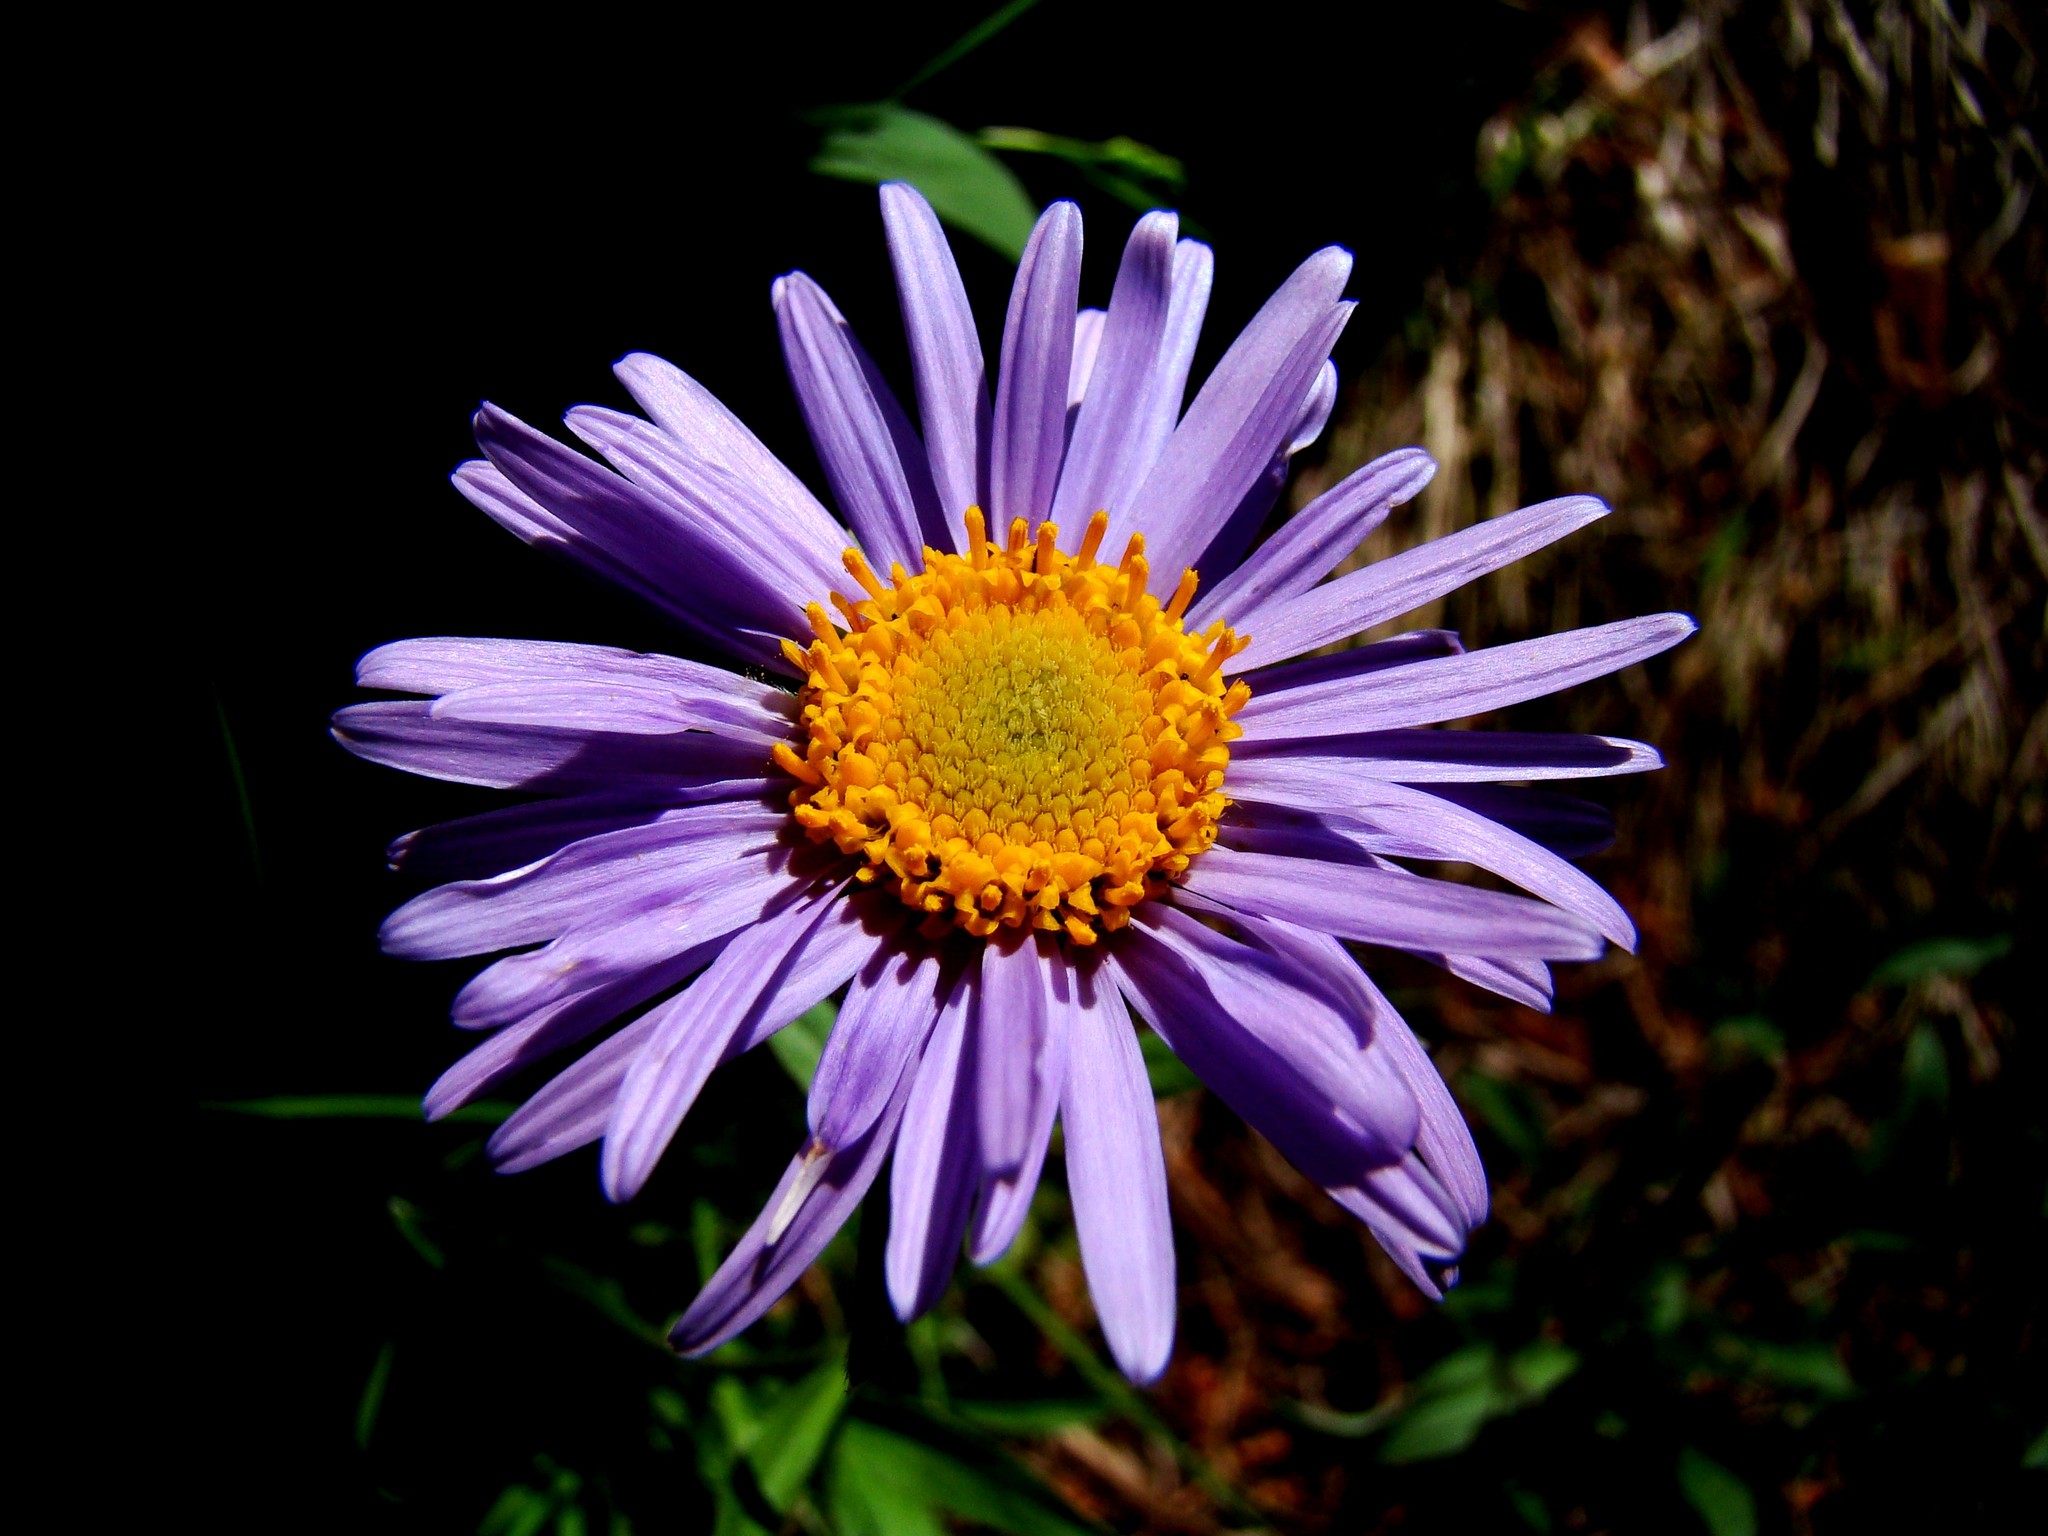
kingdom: Plantae
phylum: Tracheophyta
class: Magnoliopsida
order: Asterales
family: Asteraceae
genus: Aster
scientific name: Aster alpinus
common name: Alpine aster
